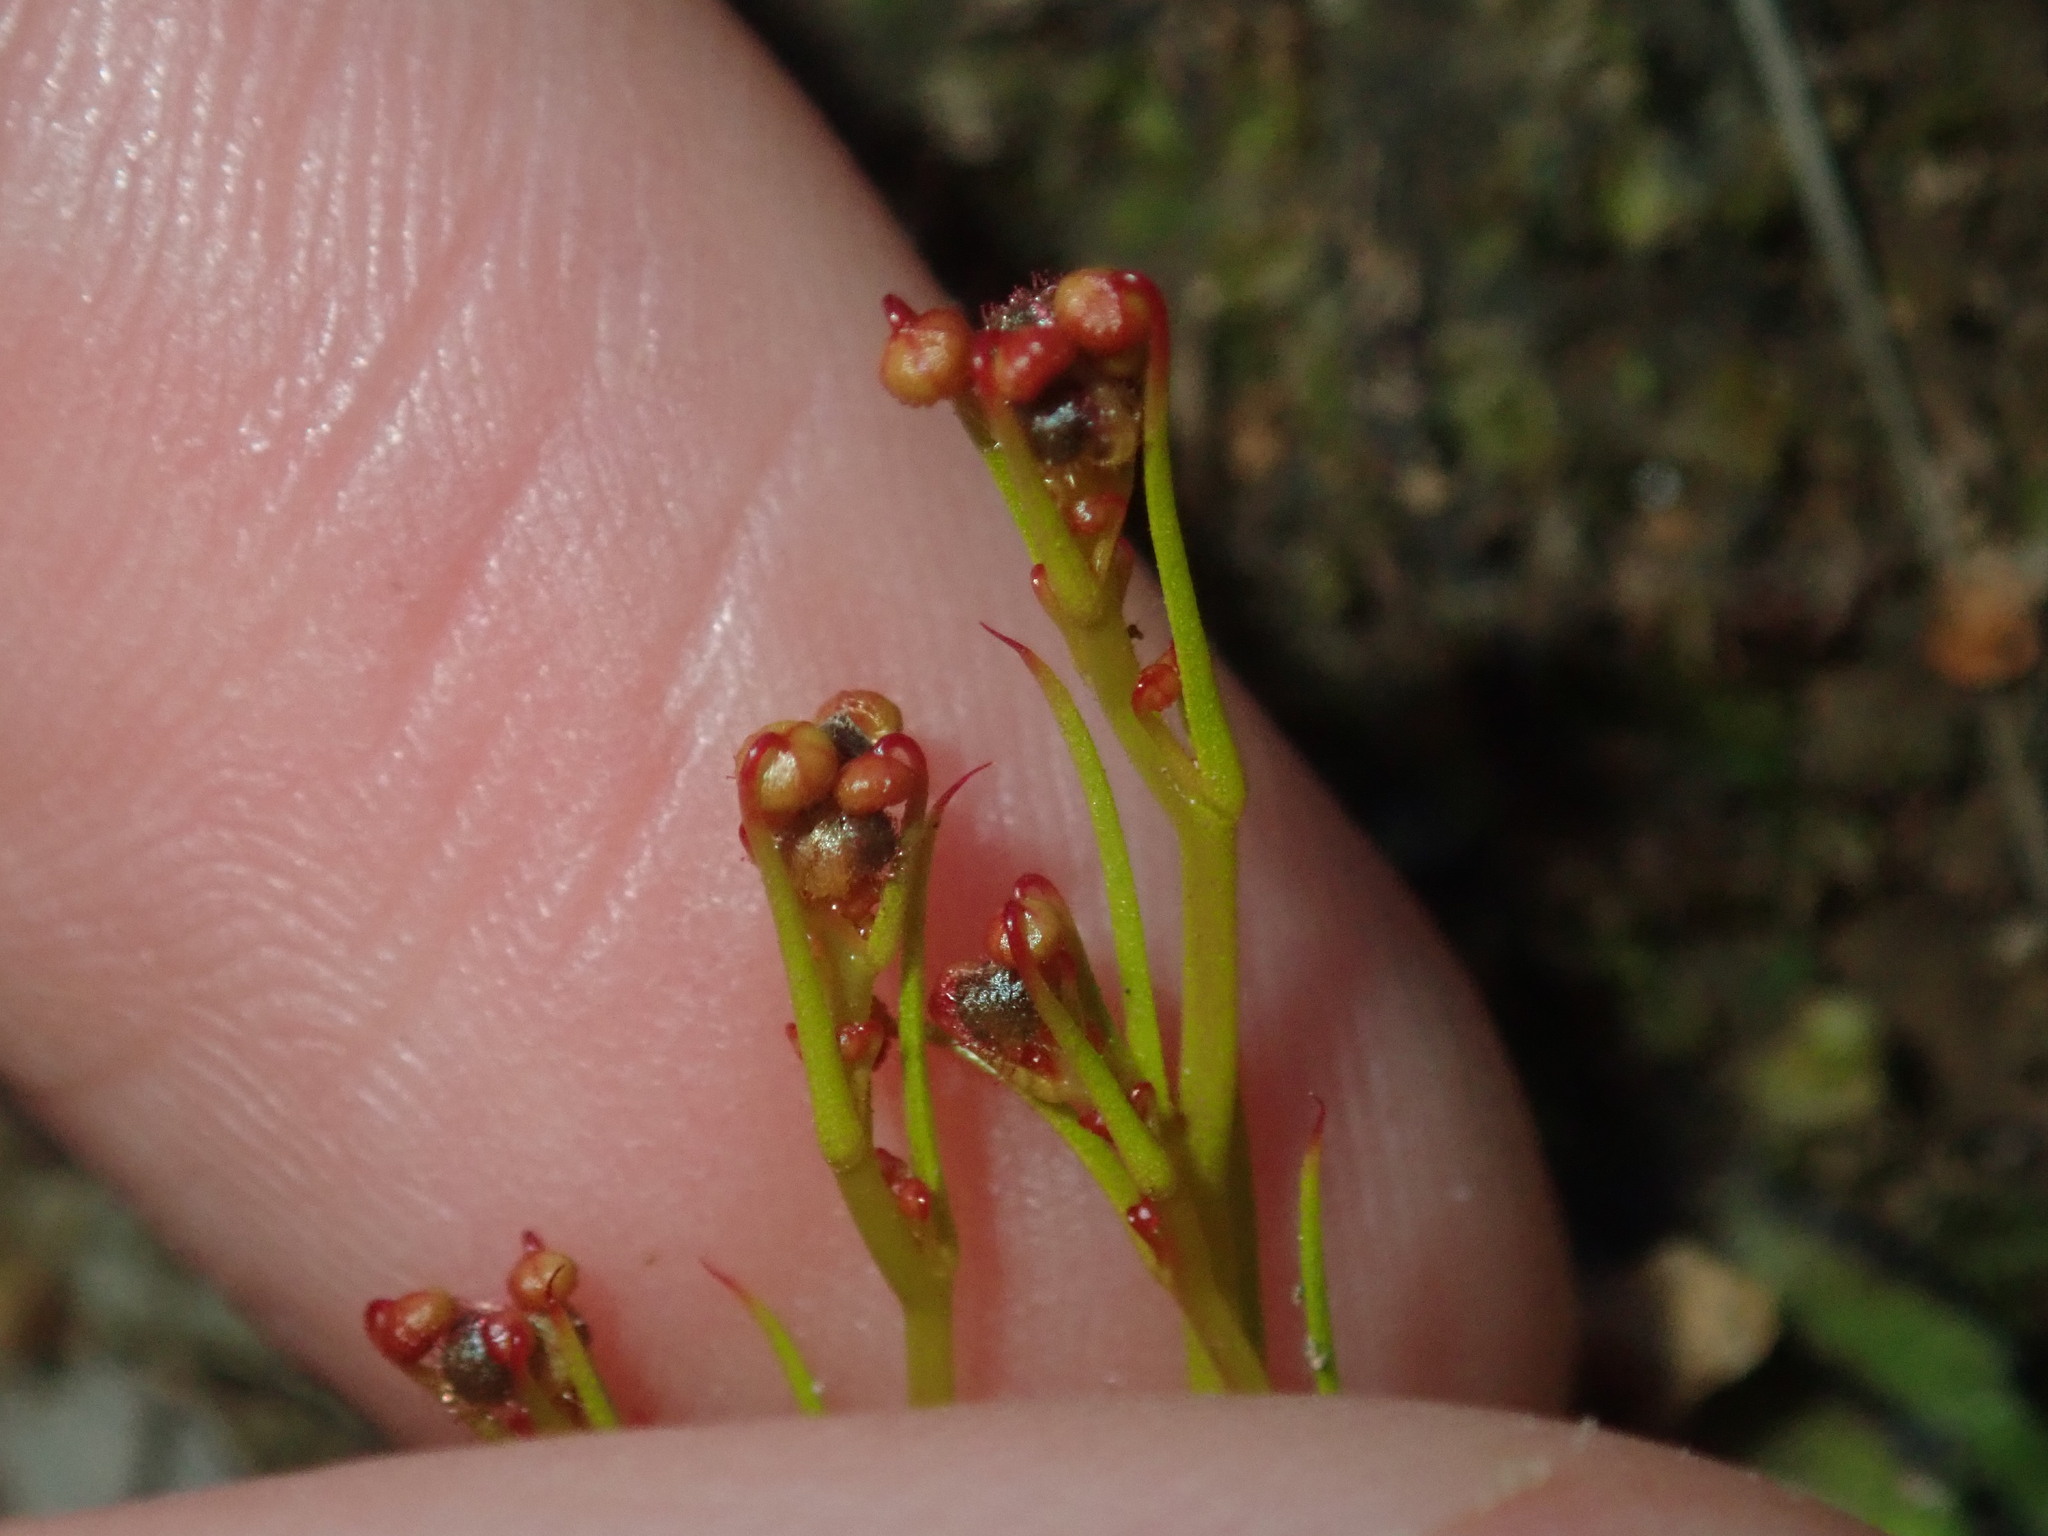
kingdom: Plantae
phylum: Tracheophyta
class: Magnoliopsida
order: Caryophyllales
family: Droseraceae
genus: Drosera
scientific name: Drosera menziesii
